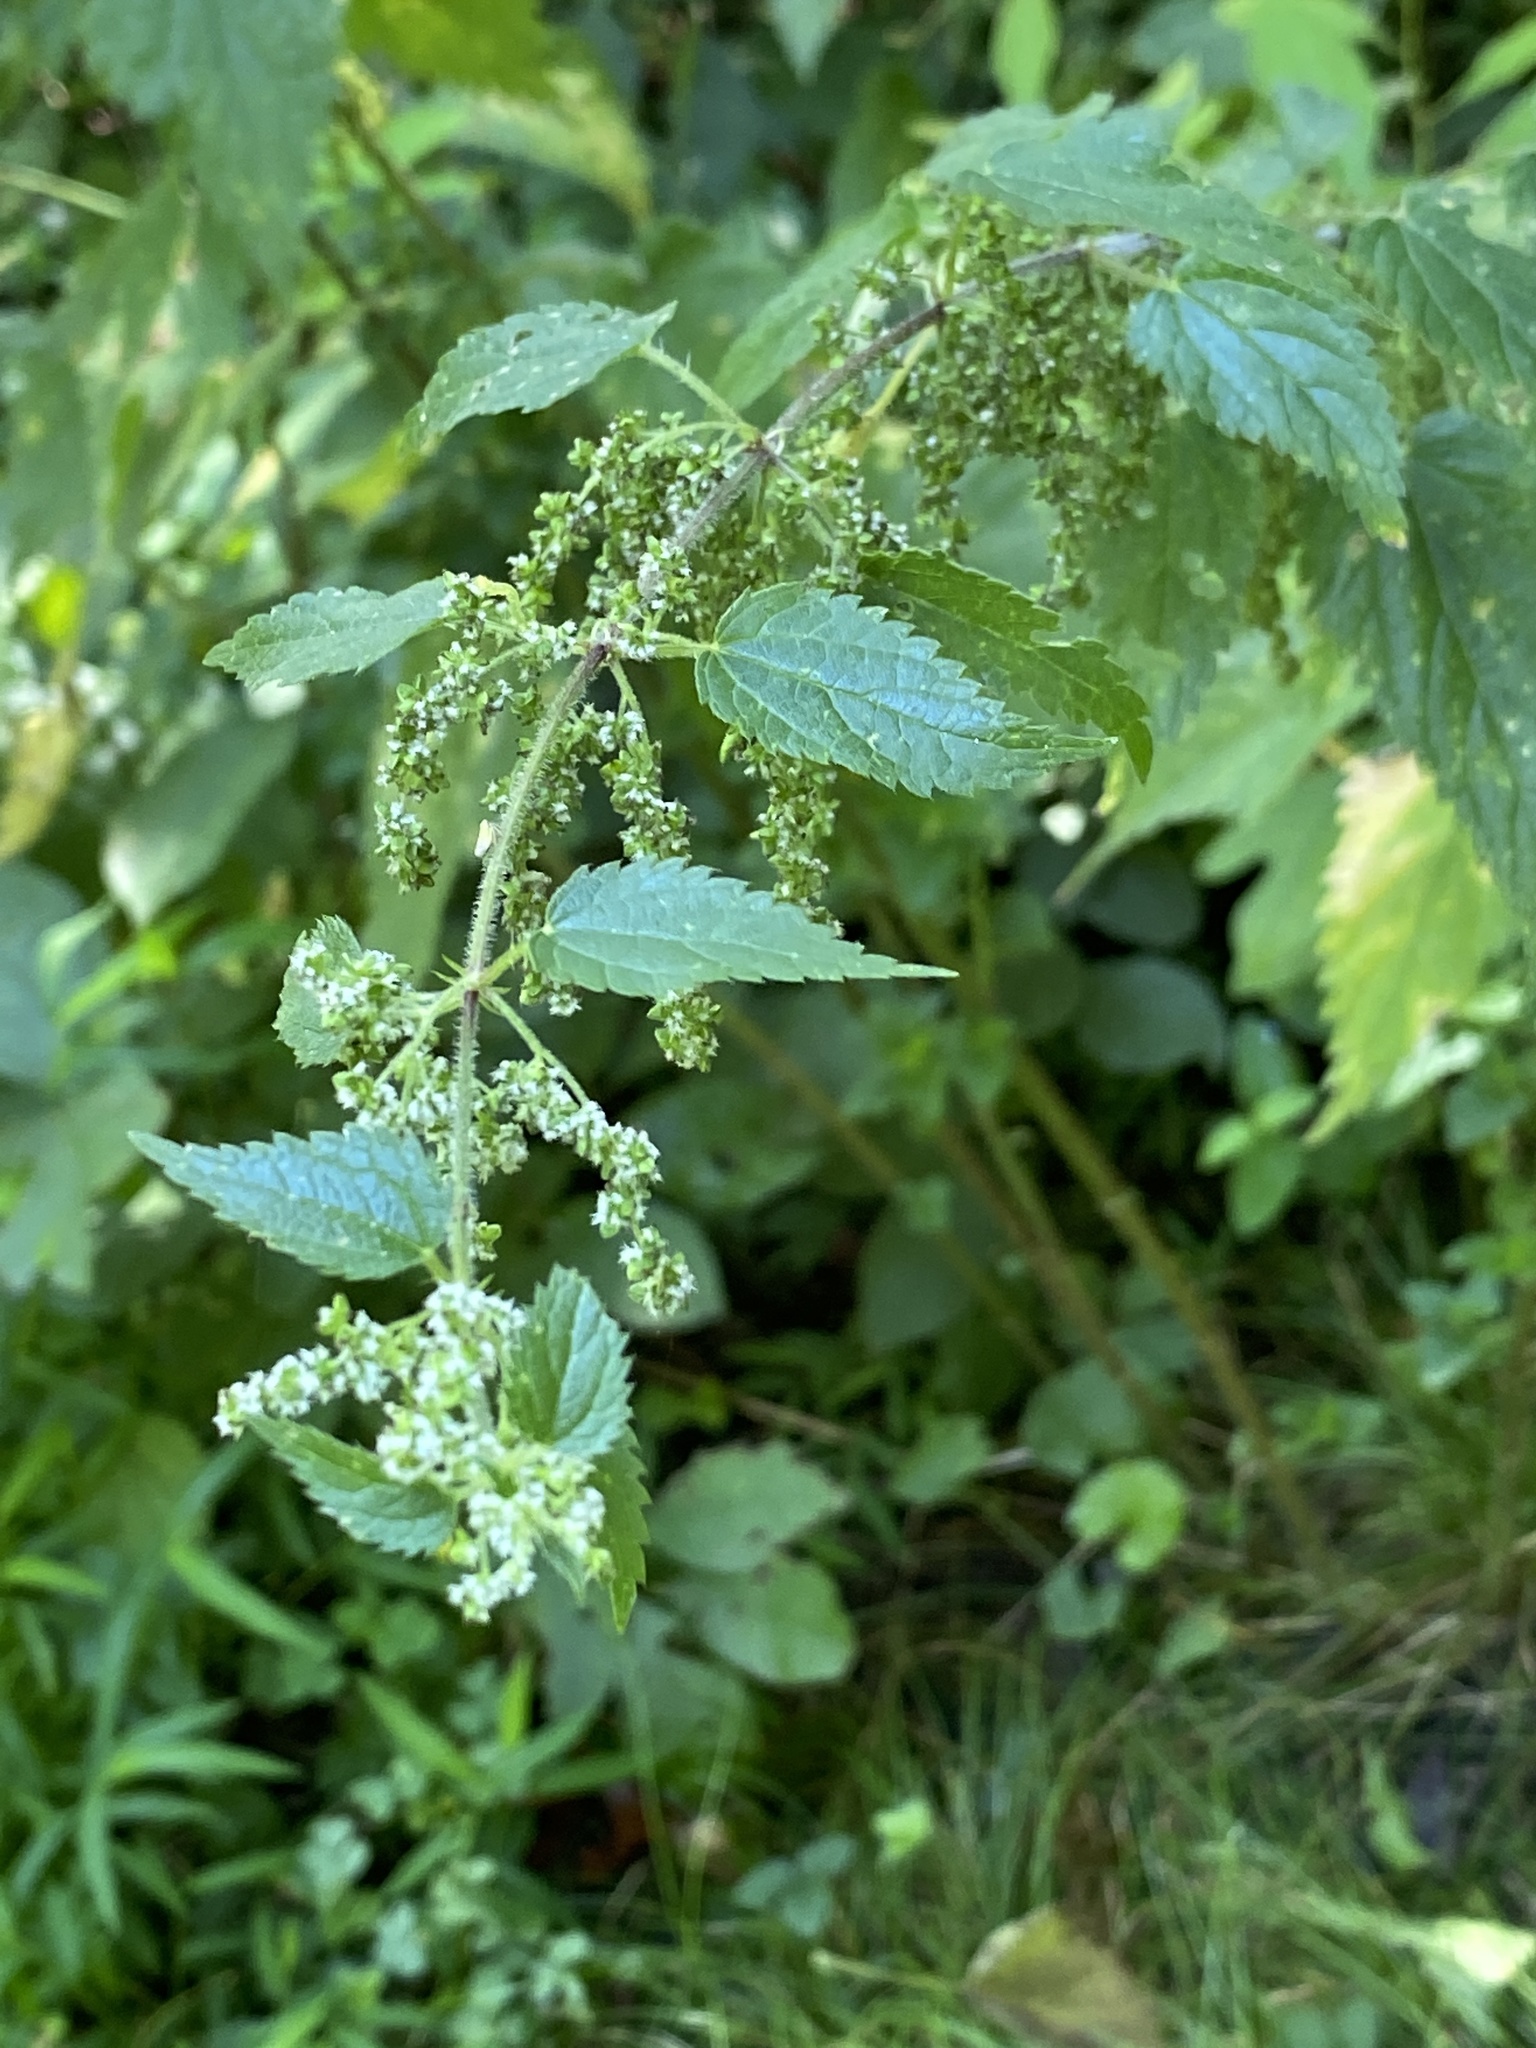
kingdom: Plantae
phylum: Tracheophyta
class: Magnoliopsida
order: Rosales
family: Urticaceae
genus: Urtica
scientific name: Urtica dioica
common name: Common nettle
